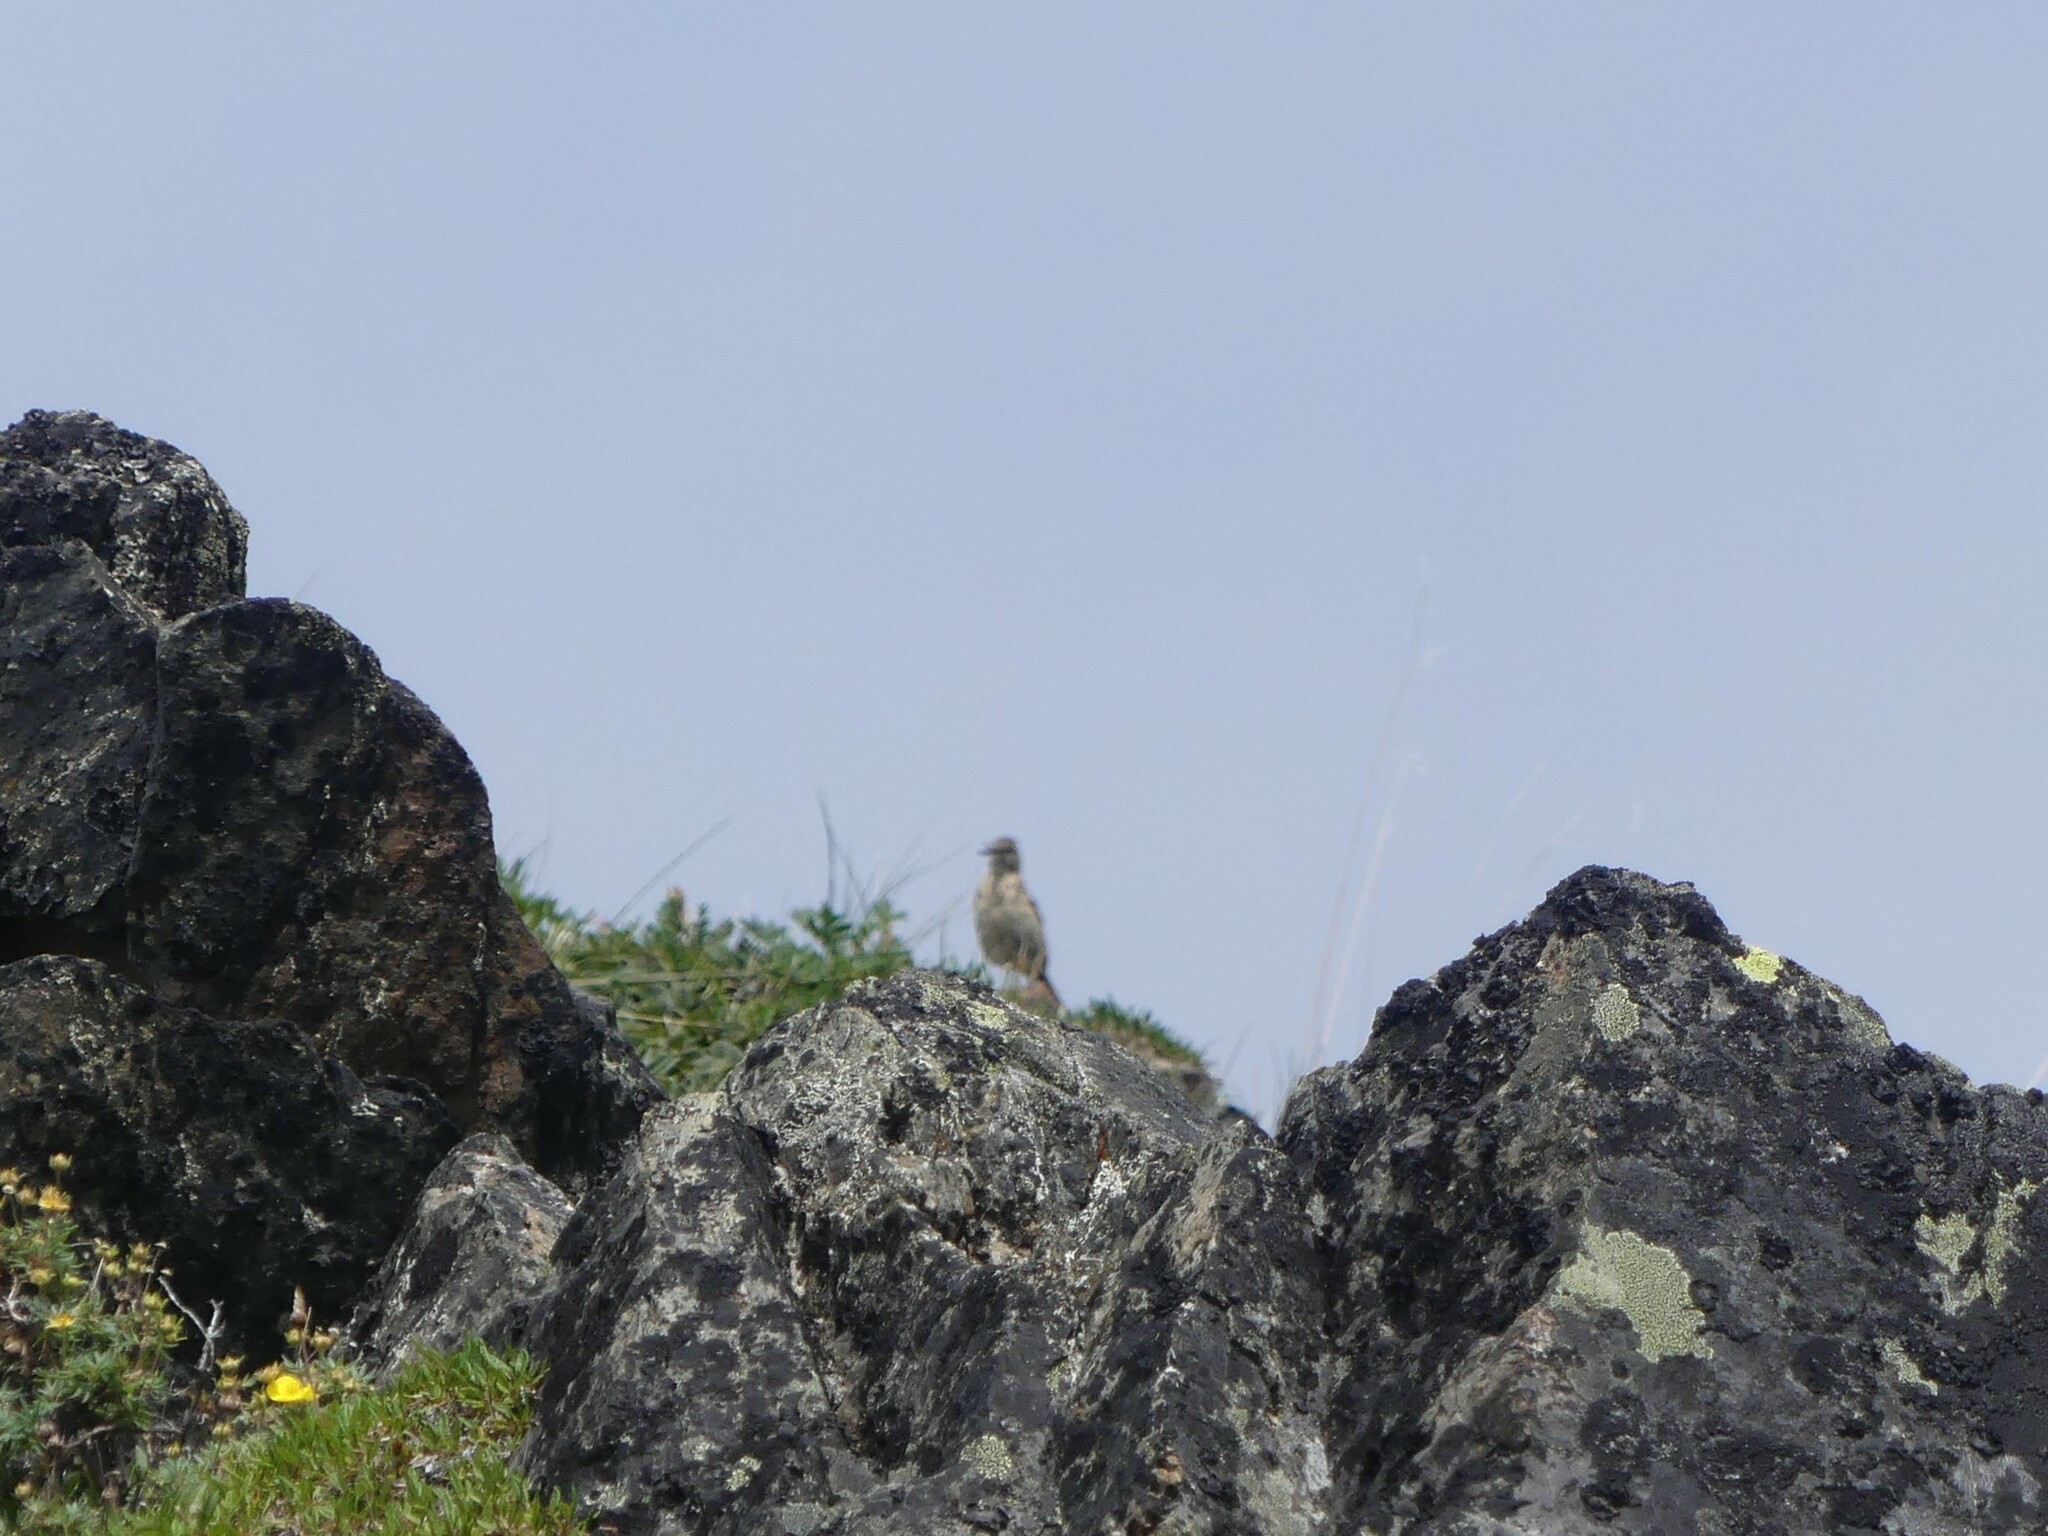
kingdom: Animalia
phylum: Chordata
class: Aves
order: Passeriformes
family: Motacillidae
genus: Anthus
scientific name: Anthus rubescens
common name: Buff-bellied pipit
